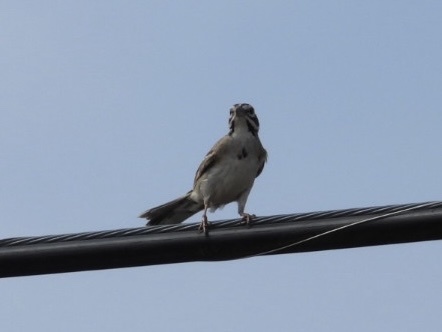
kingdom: Animalia
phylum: Chordata
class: Aves
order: Passeriformes
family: Passerellidae
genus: Chondestes
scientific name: Chondestes grammacus
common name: Lark sparrow
